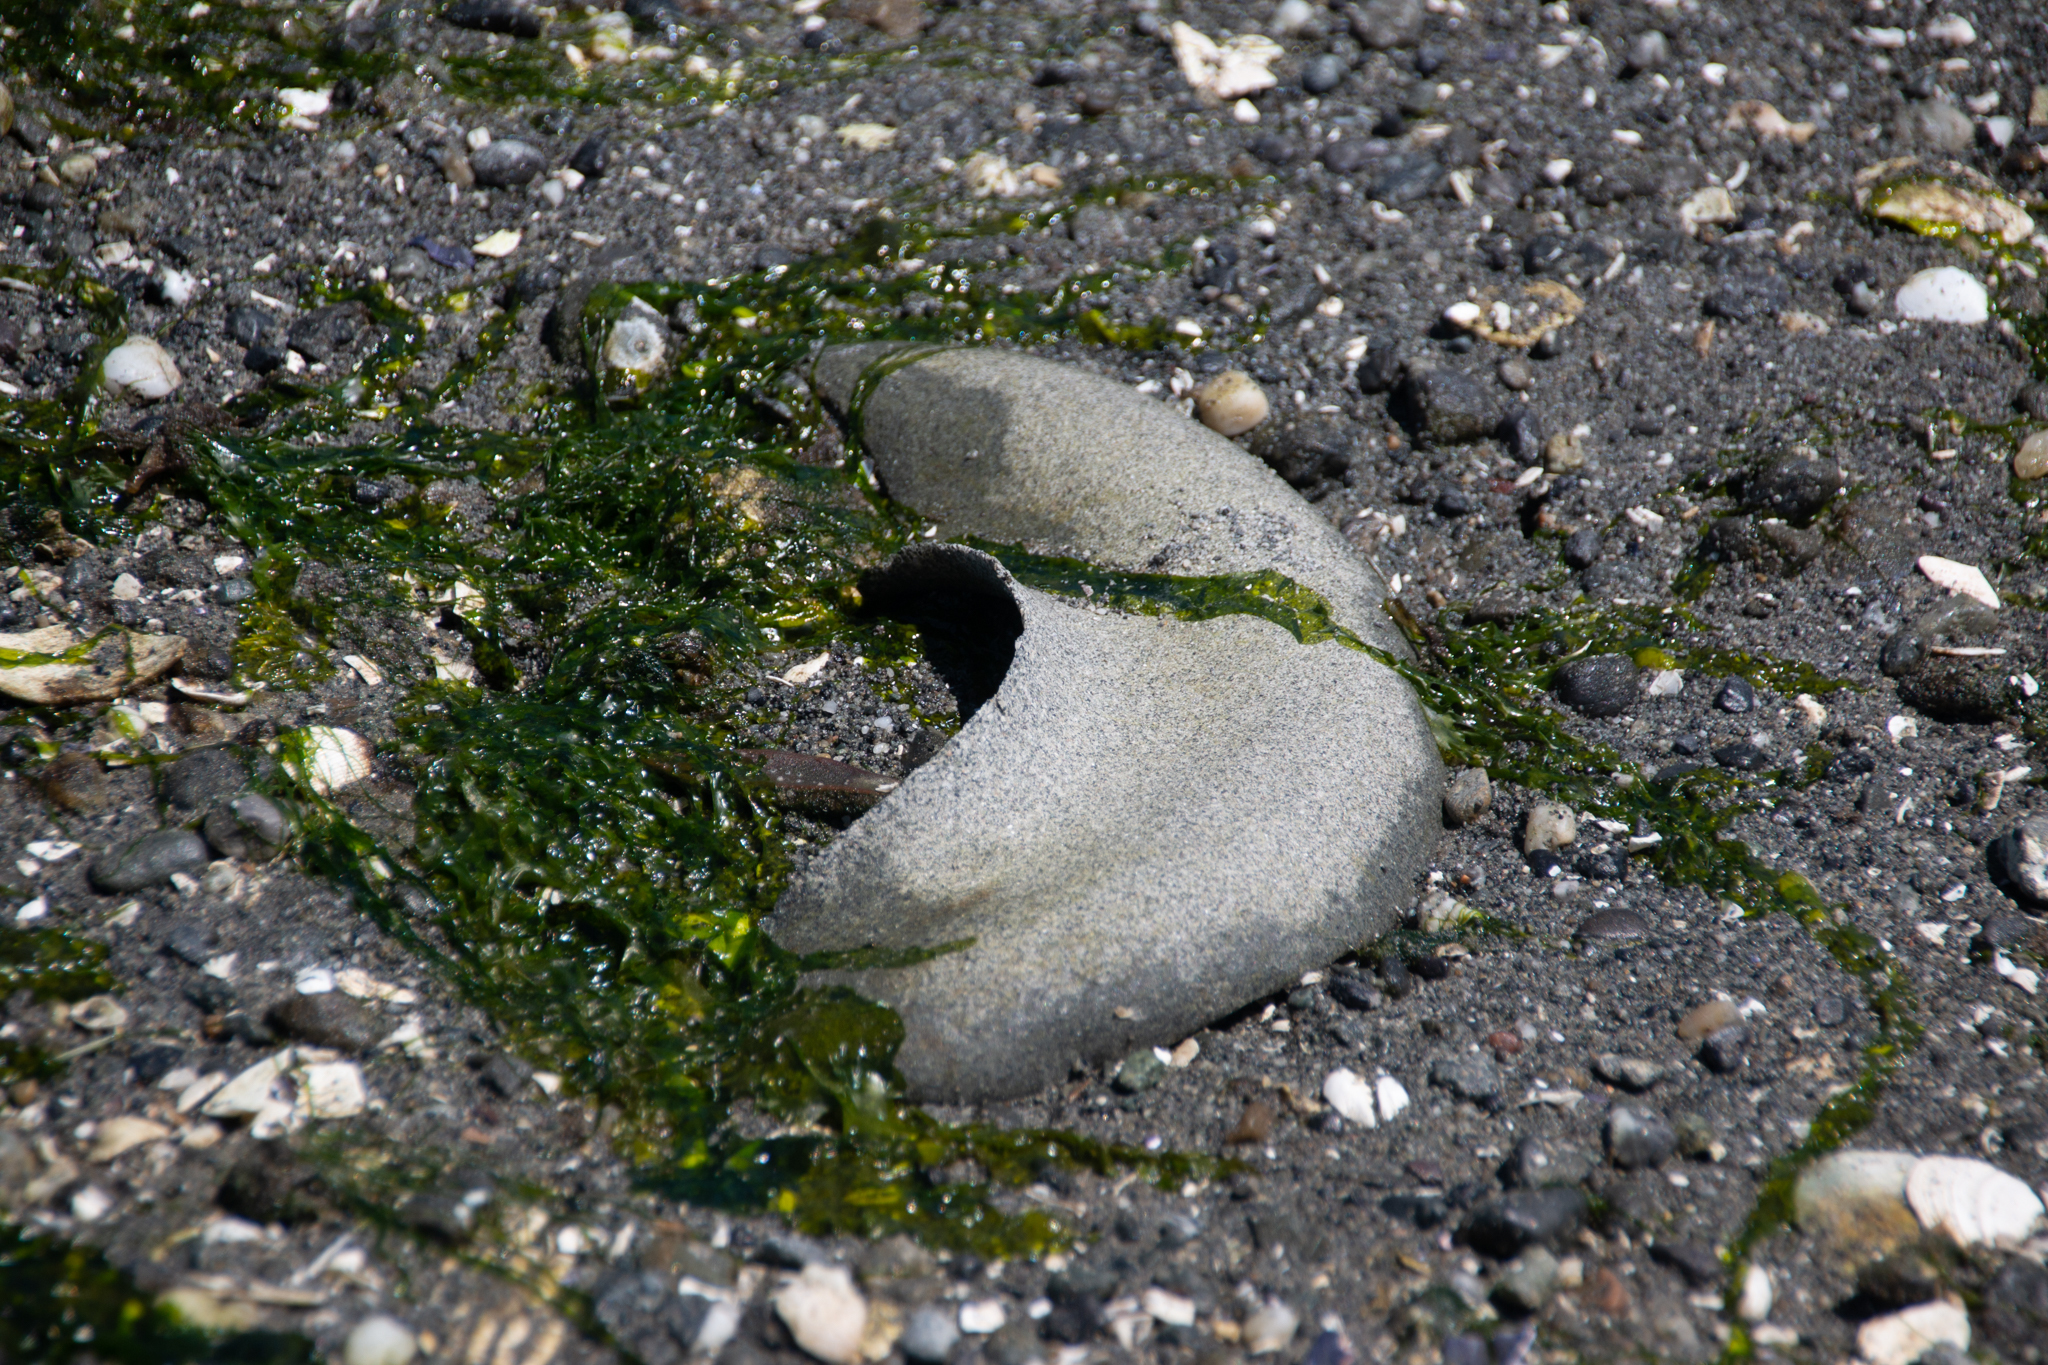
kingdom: Animalia
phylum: Mollusca
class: Gastropoda
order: Littorinimorpha
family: Naticidae
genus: Neverita
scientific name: Neverita lewisii
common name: Lewis' moonsnail
